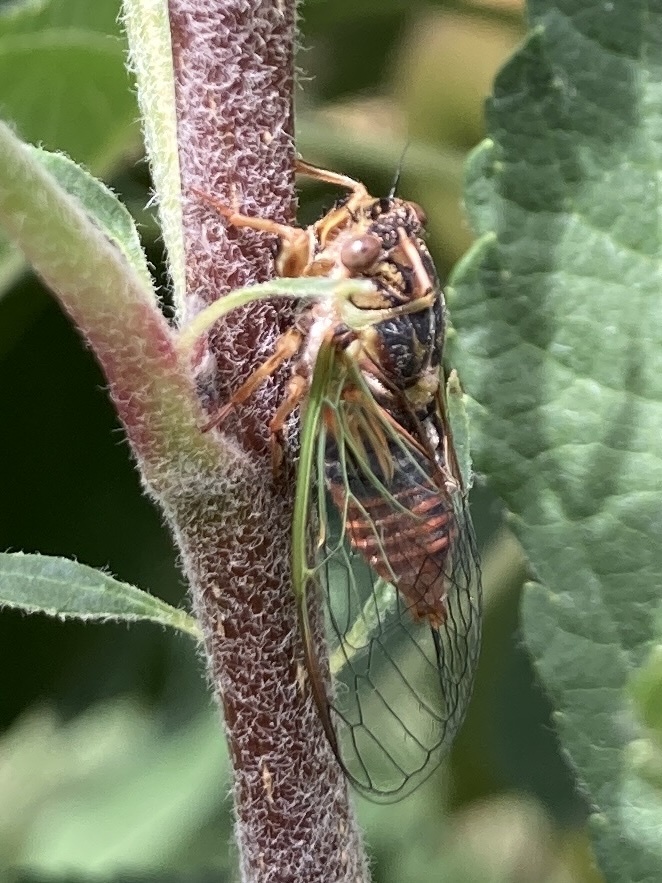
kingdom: Animalia
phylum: Arthropoda
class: Insecta
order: Hemiptera
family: Cicadidae
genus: Rhodopsalta
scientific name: Rhodopsalta cruentata
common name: Blood redtail cicada
